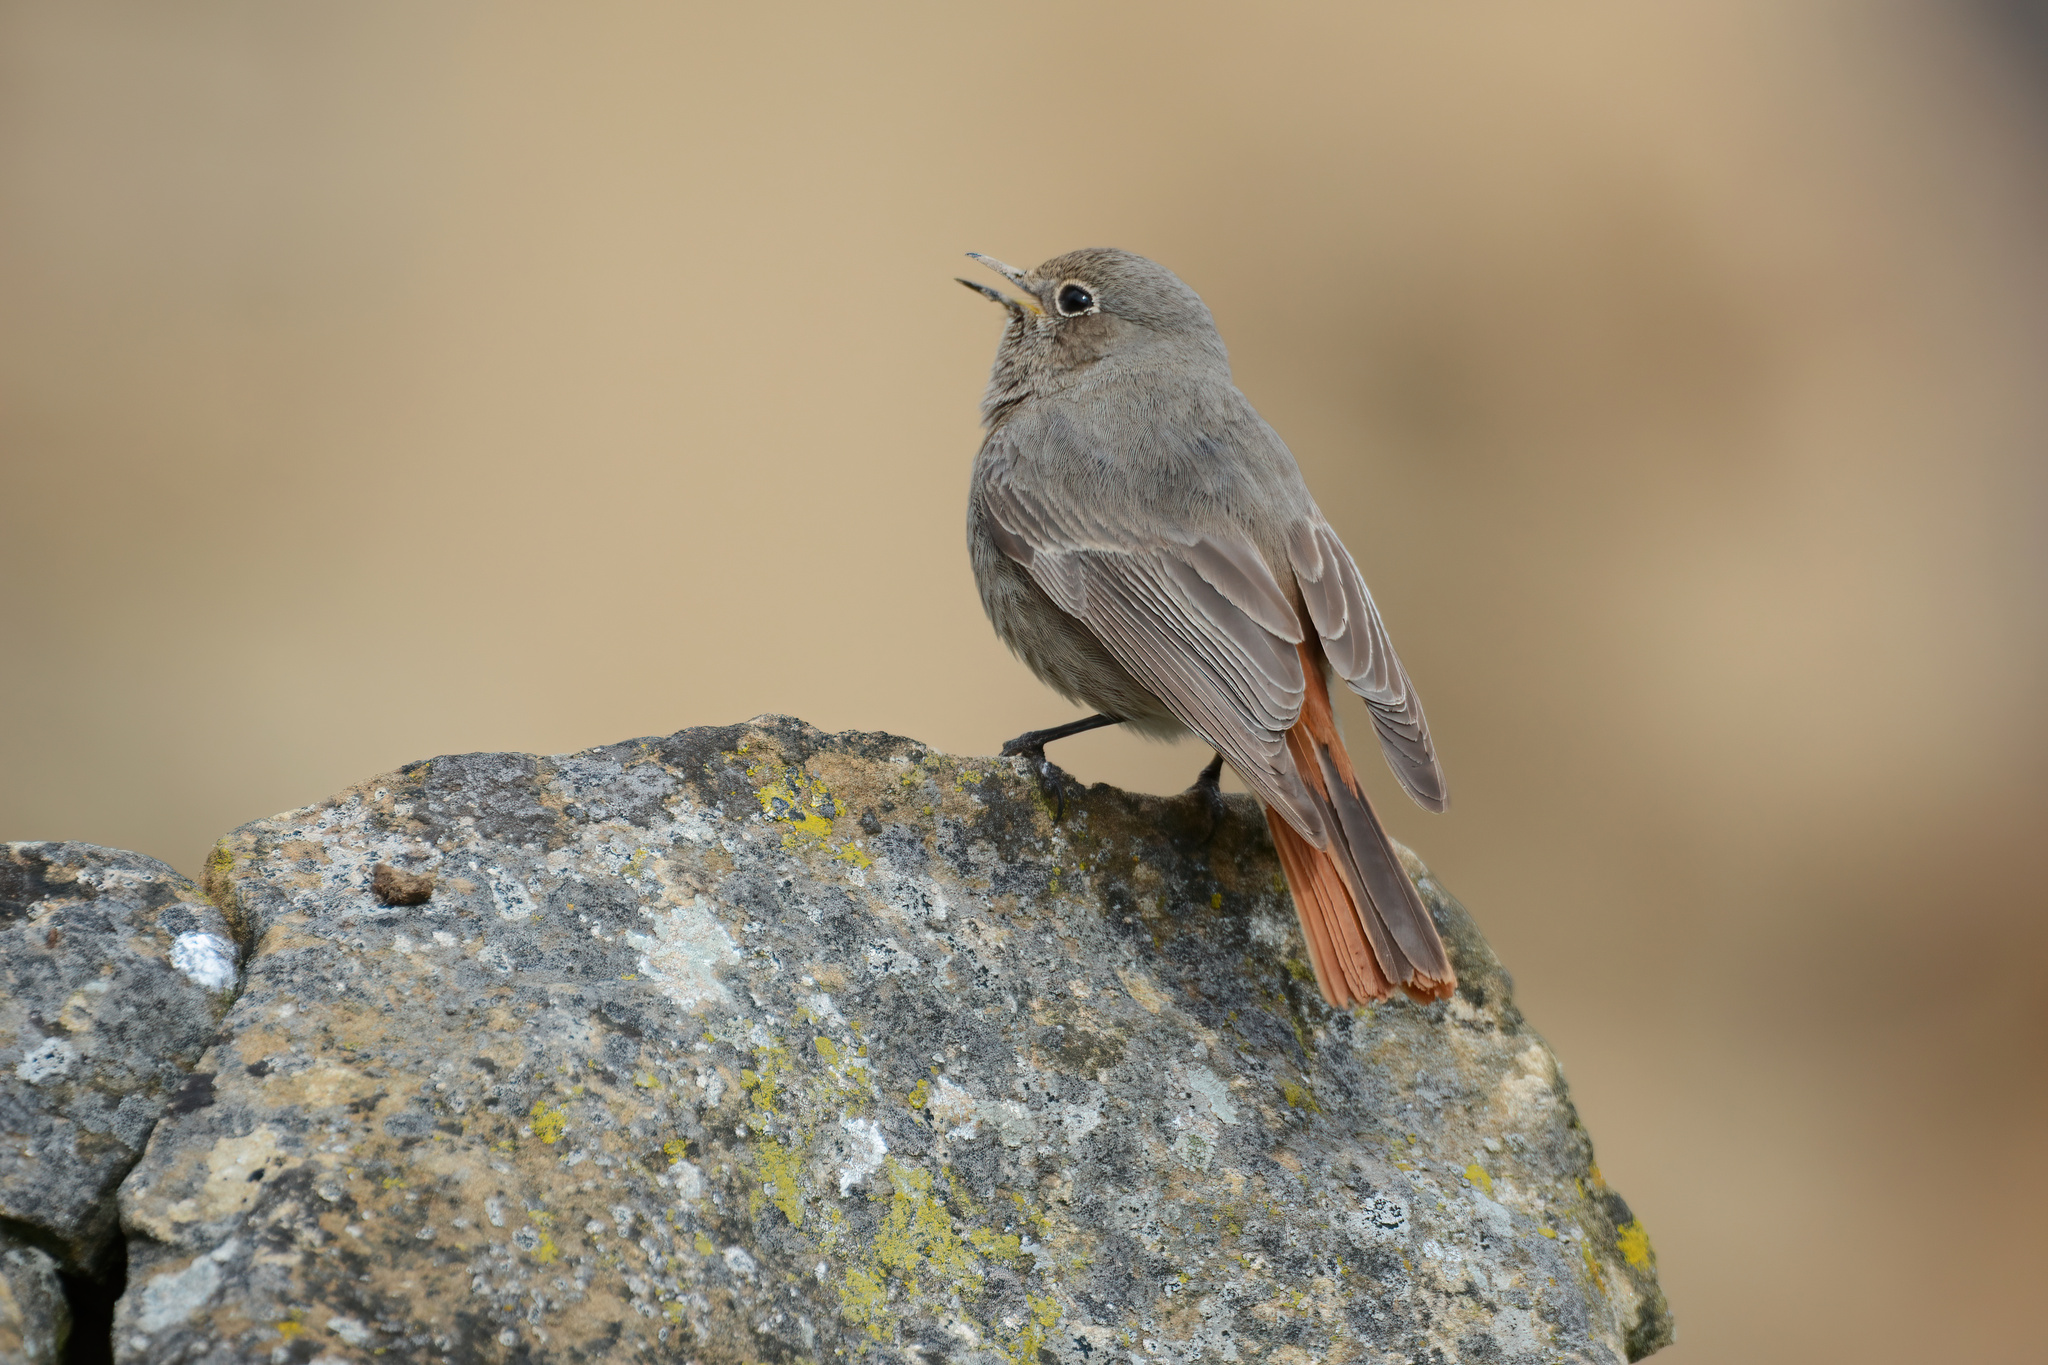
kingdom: Animalia
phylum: Chordata
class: Aves
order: Passeriformes
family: Muscicapidae
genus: Phoenicurus
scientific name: Phoenicurus ochruros
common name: Black redstart
